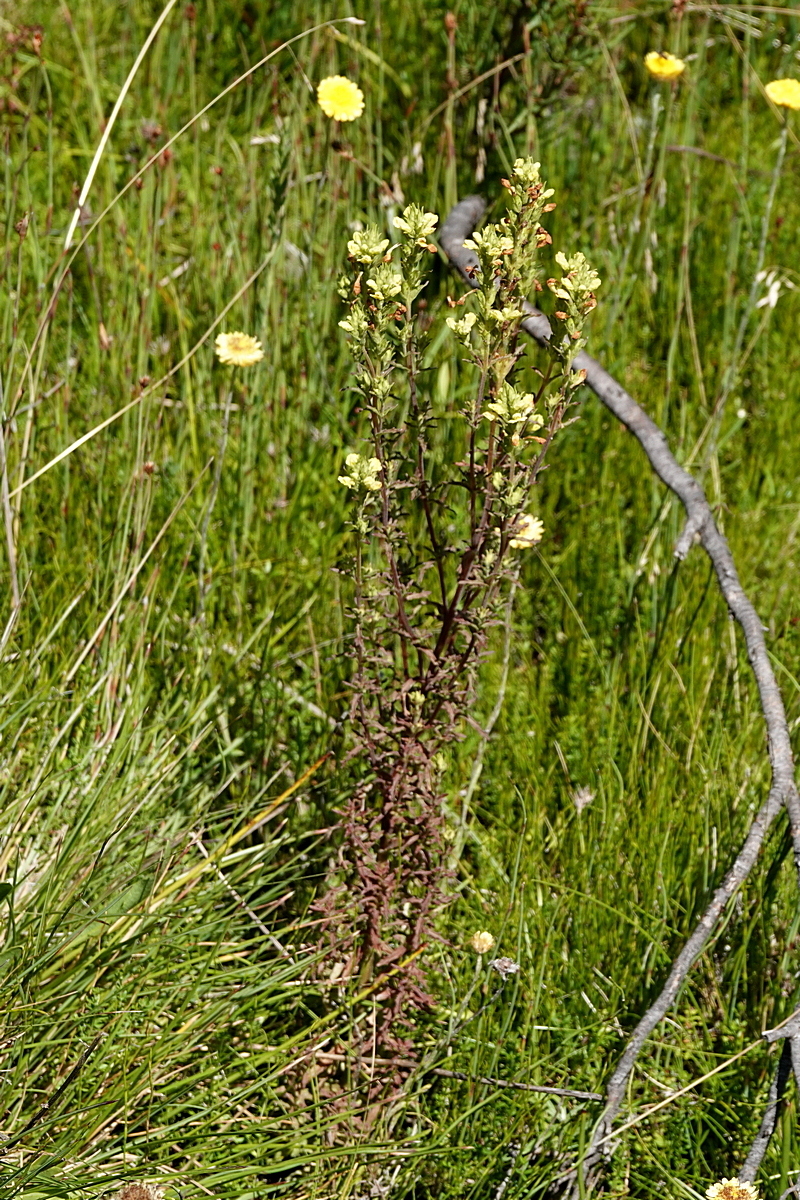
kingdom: Plantae
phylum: Tracheophyta
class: Magnoliopsida
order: Lamiales
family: Orobanchaceae
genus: Euphrasia
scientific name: Euphrasia scabra
